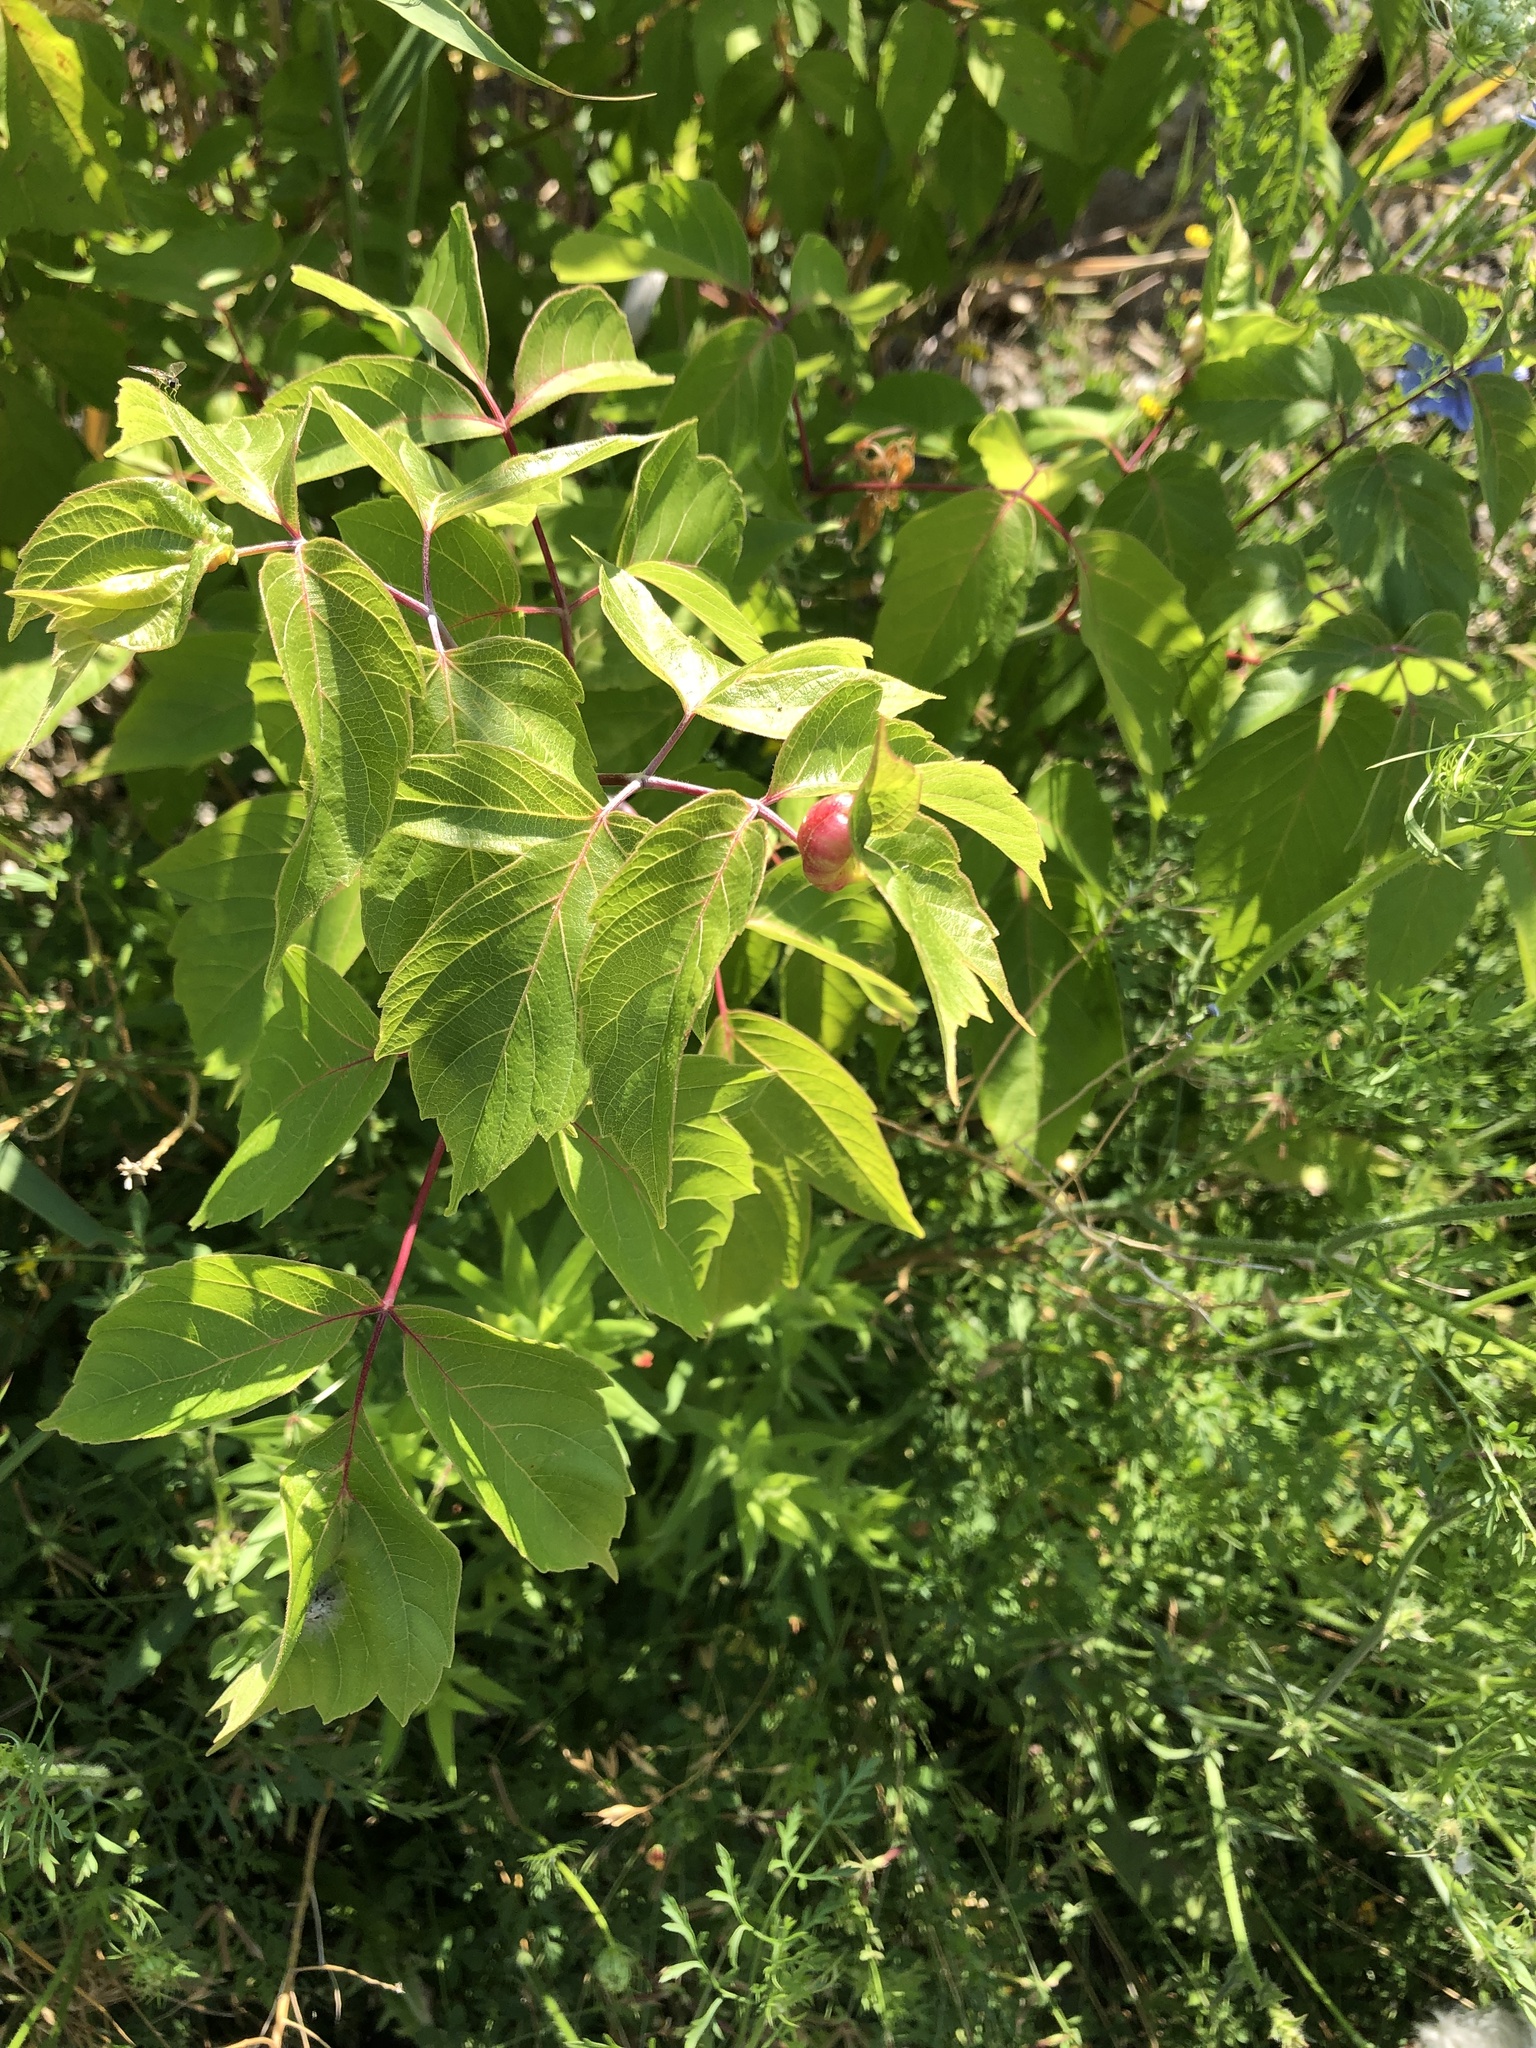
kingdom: Plantae
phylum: Tracheophyta
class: Magnoliopsida
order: Sapindales
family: Sapindaceae
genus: Acer
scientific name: Acer negundo
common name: Ashleaf maple
